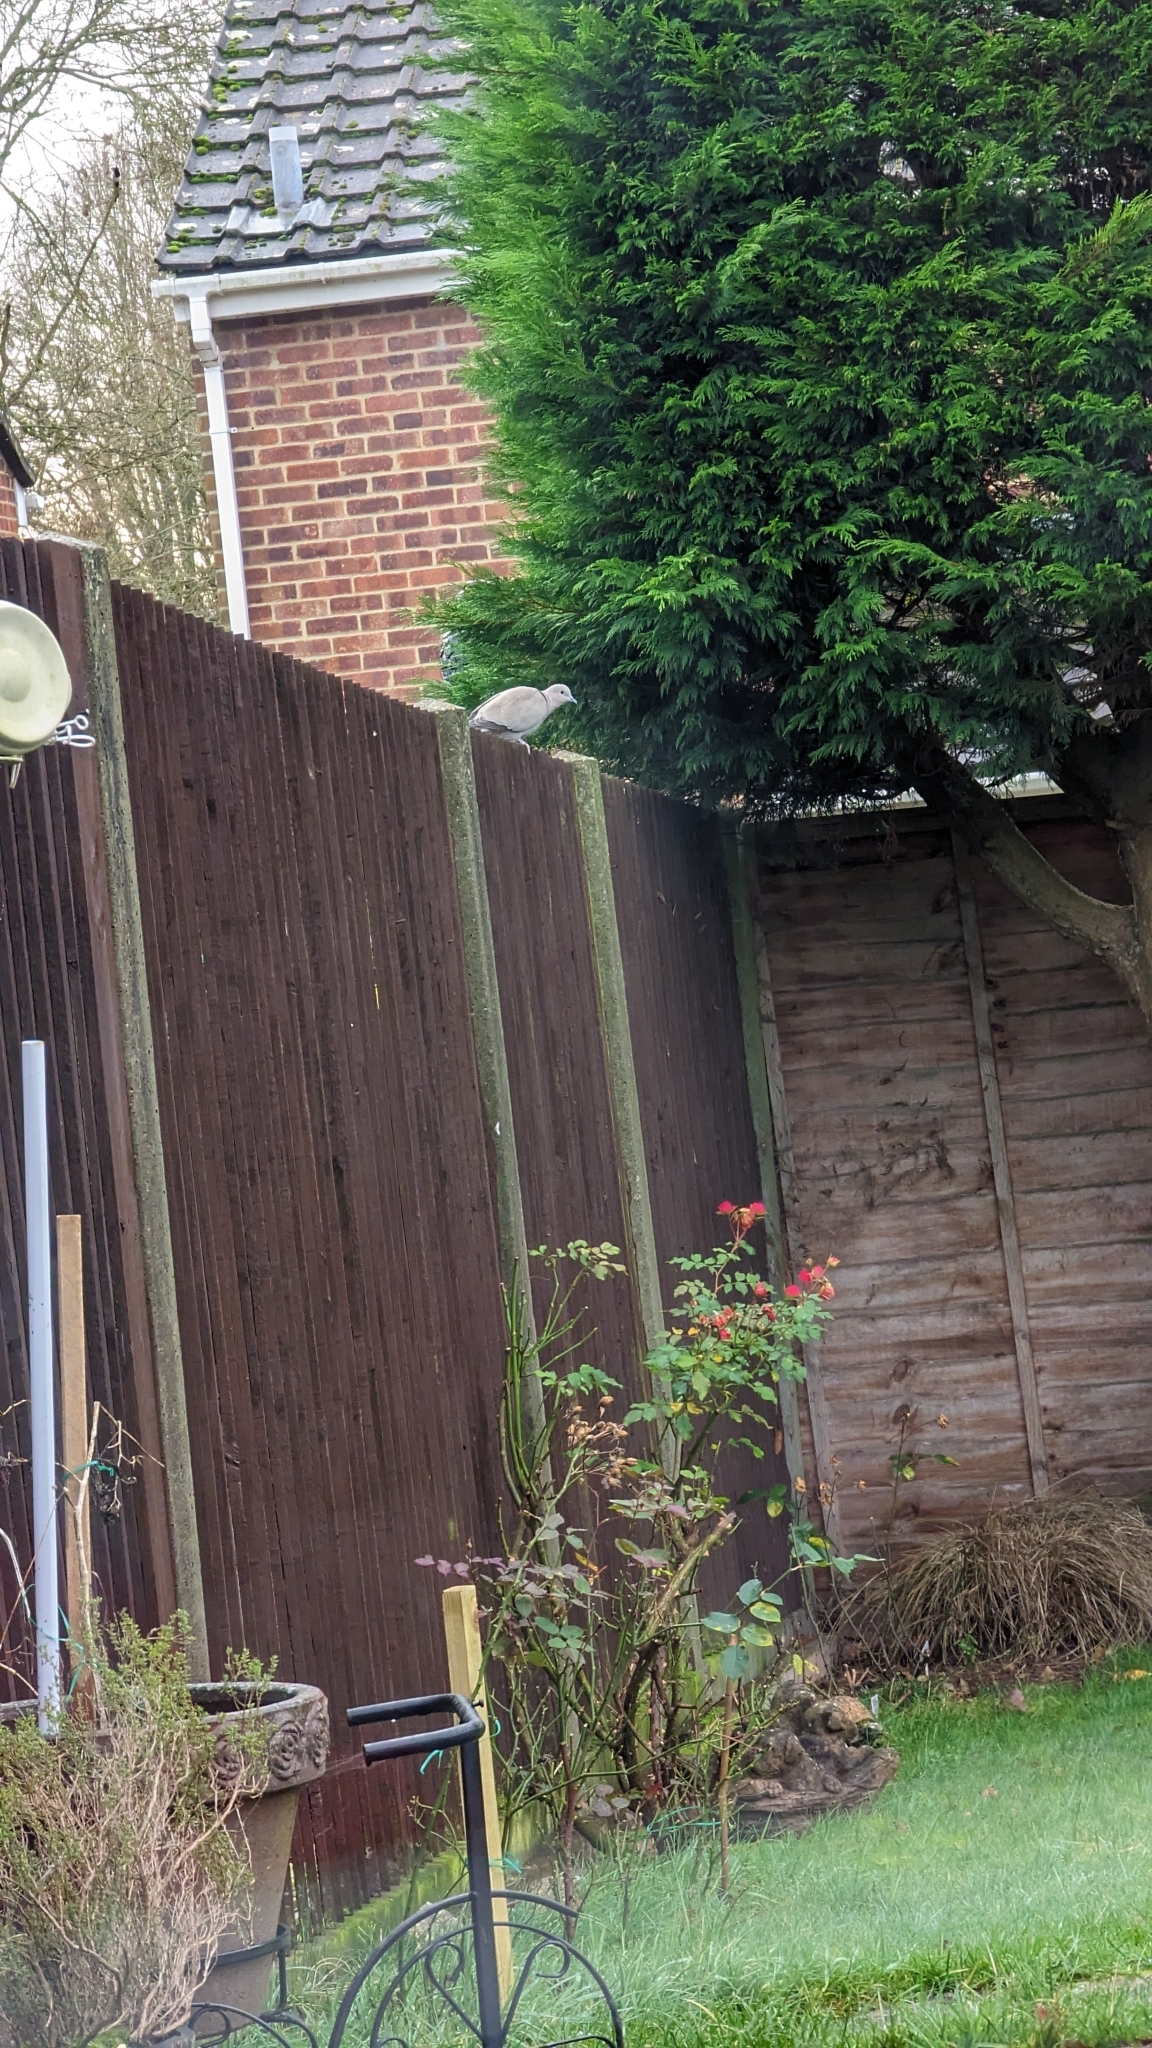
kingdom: Animalia
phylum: Chordata
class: Aves
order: Columbiformes
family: Columbidae
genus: Streptopelia
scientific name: Streptopelia decaocto
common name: Eurasian collared dove
